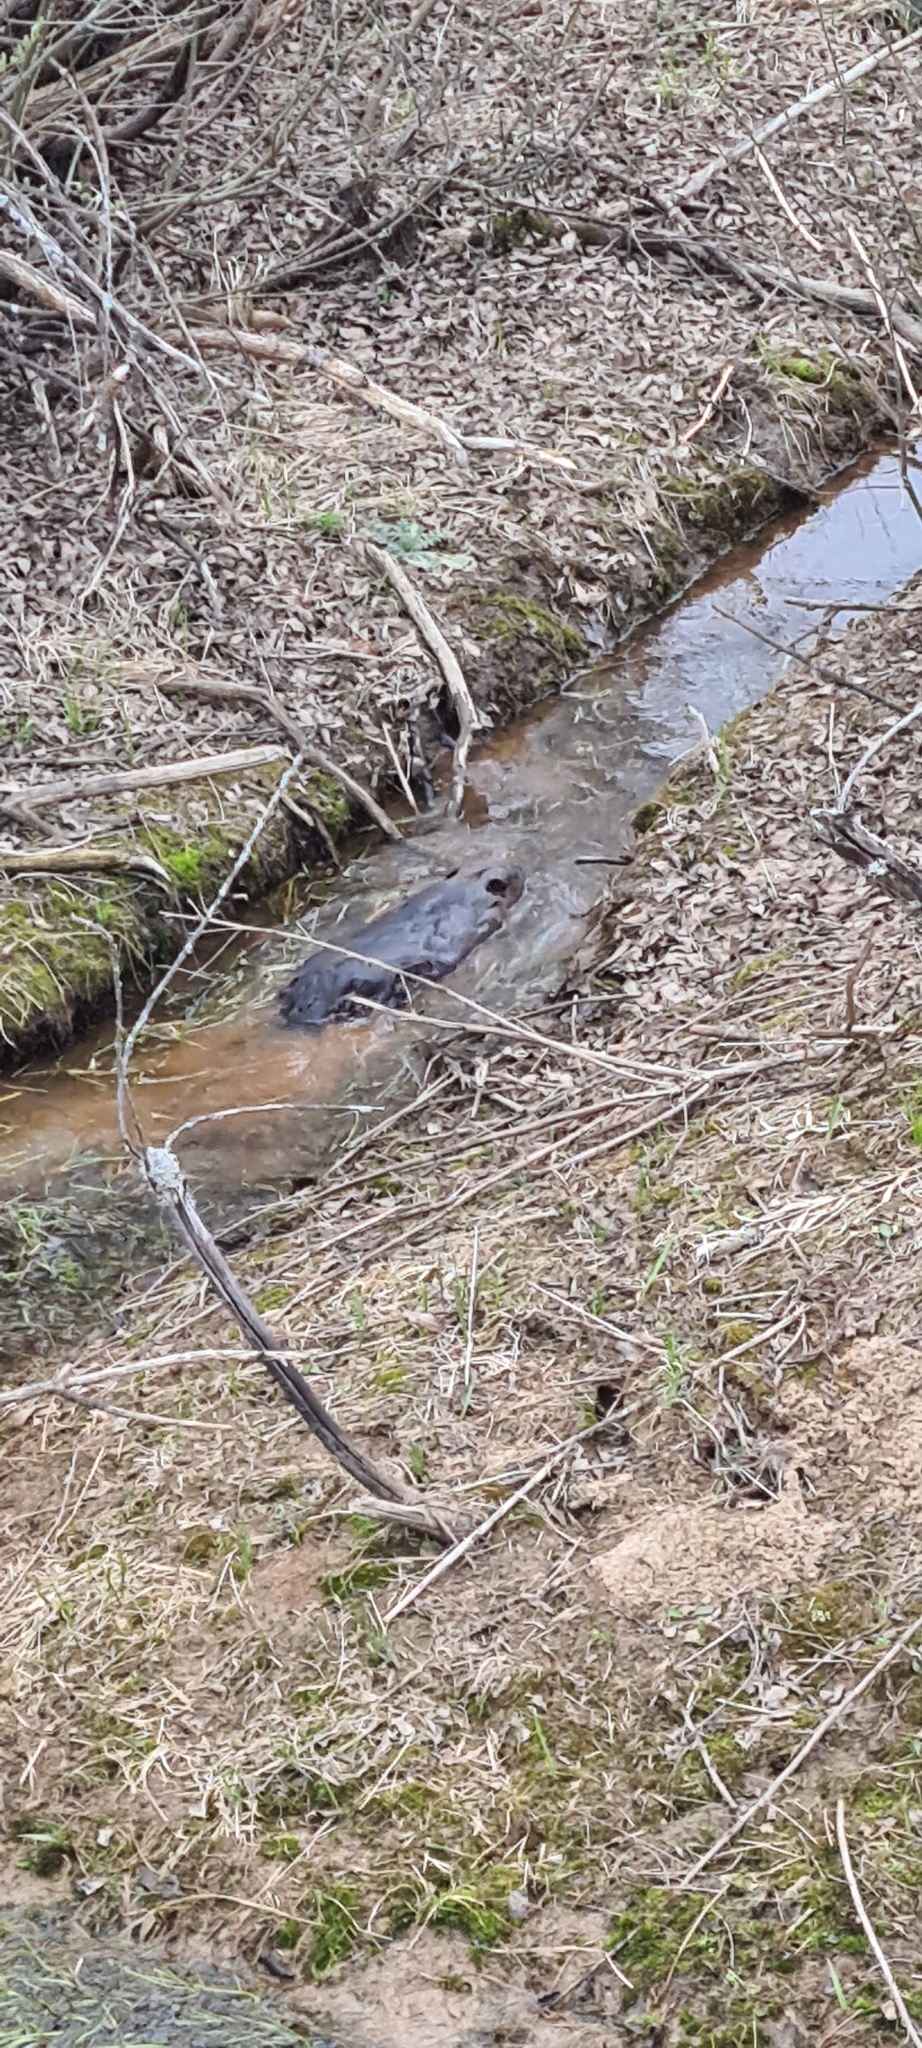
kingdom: Animalia
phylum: Chordata
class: Mammalia
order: Rodentia
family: Castoridae
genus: Castor
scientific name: Castor fiber
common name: Eurasian beaver
